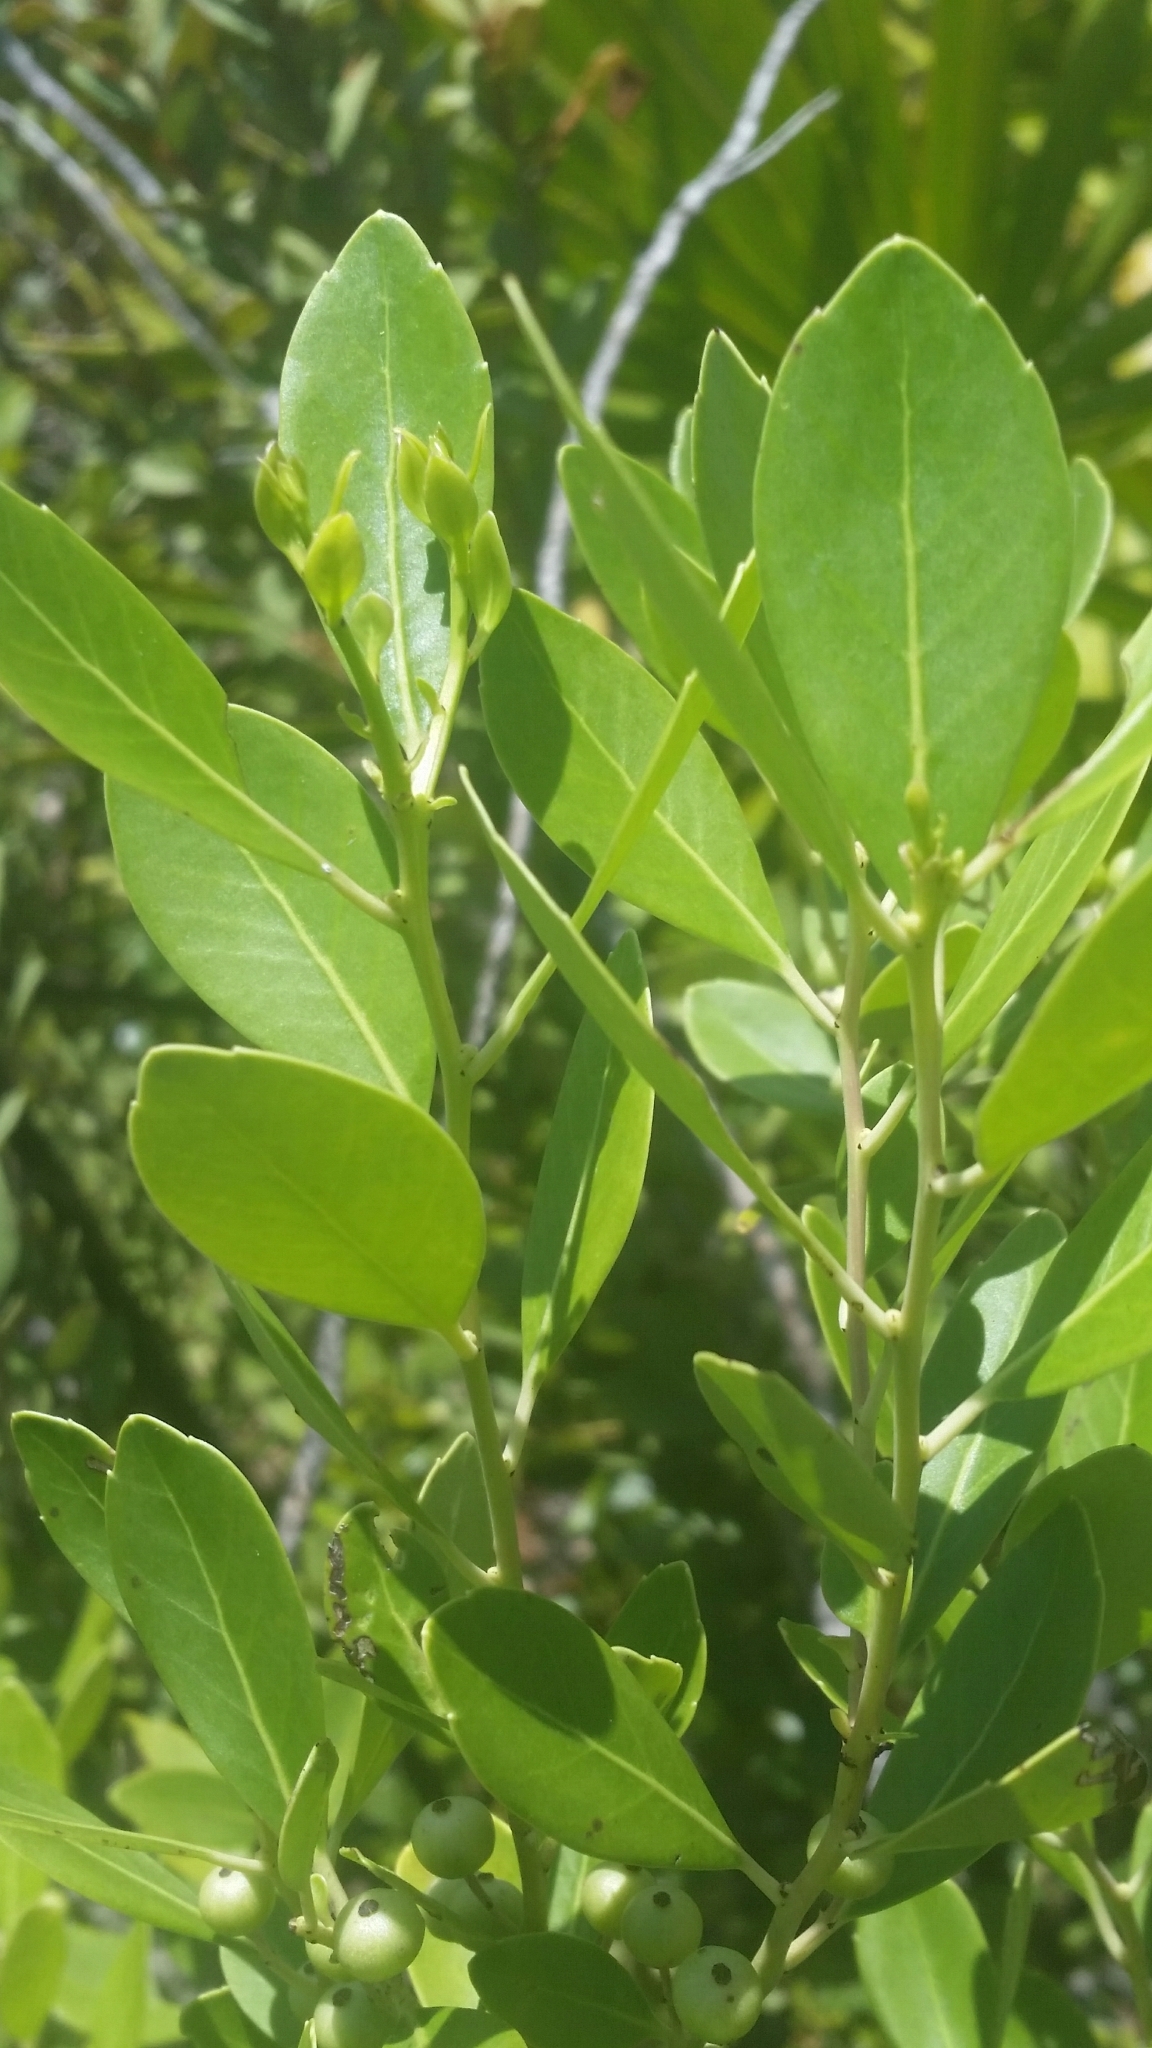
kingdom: Plantae
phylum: Tracheophyta
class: Magnoliopsida
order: Aquifoliales
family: Aquifoliaceae
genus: Ilex
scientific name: Ilex glabra
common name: Bitter gallberry
